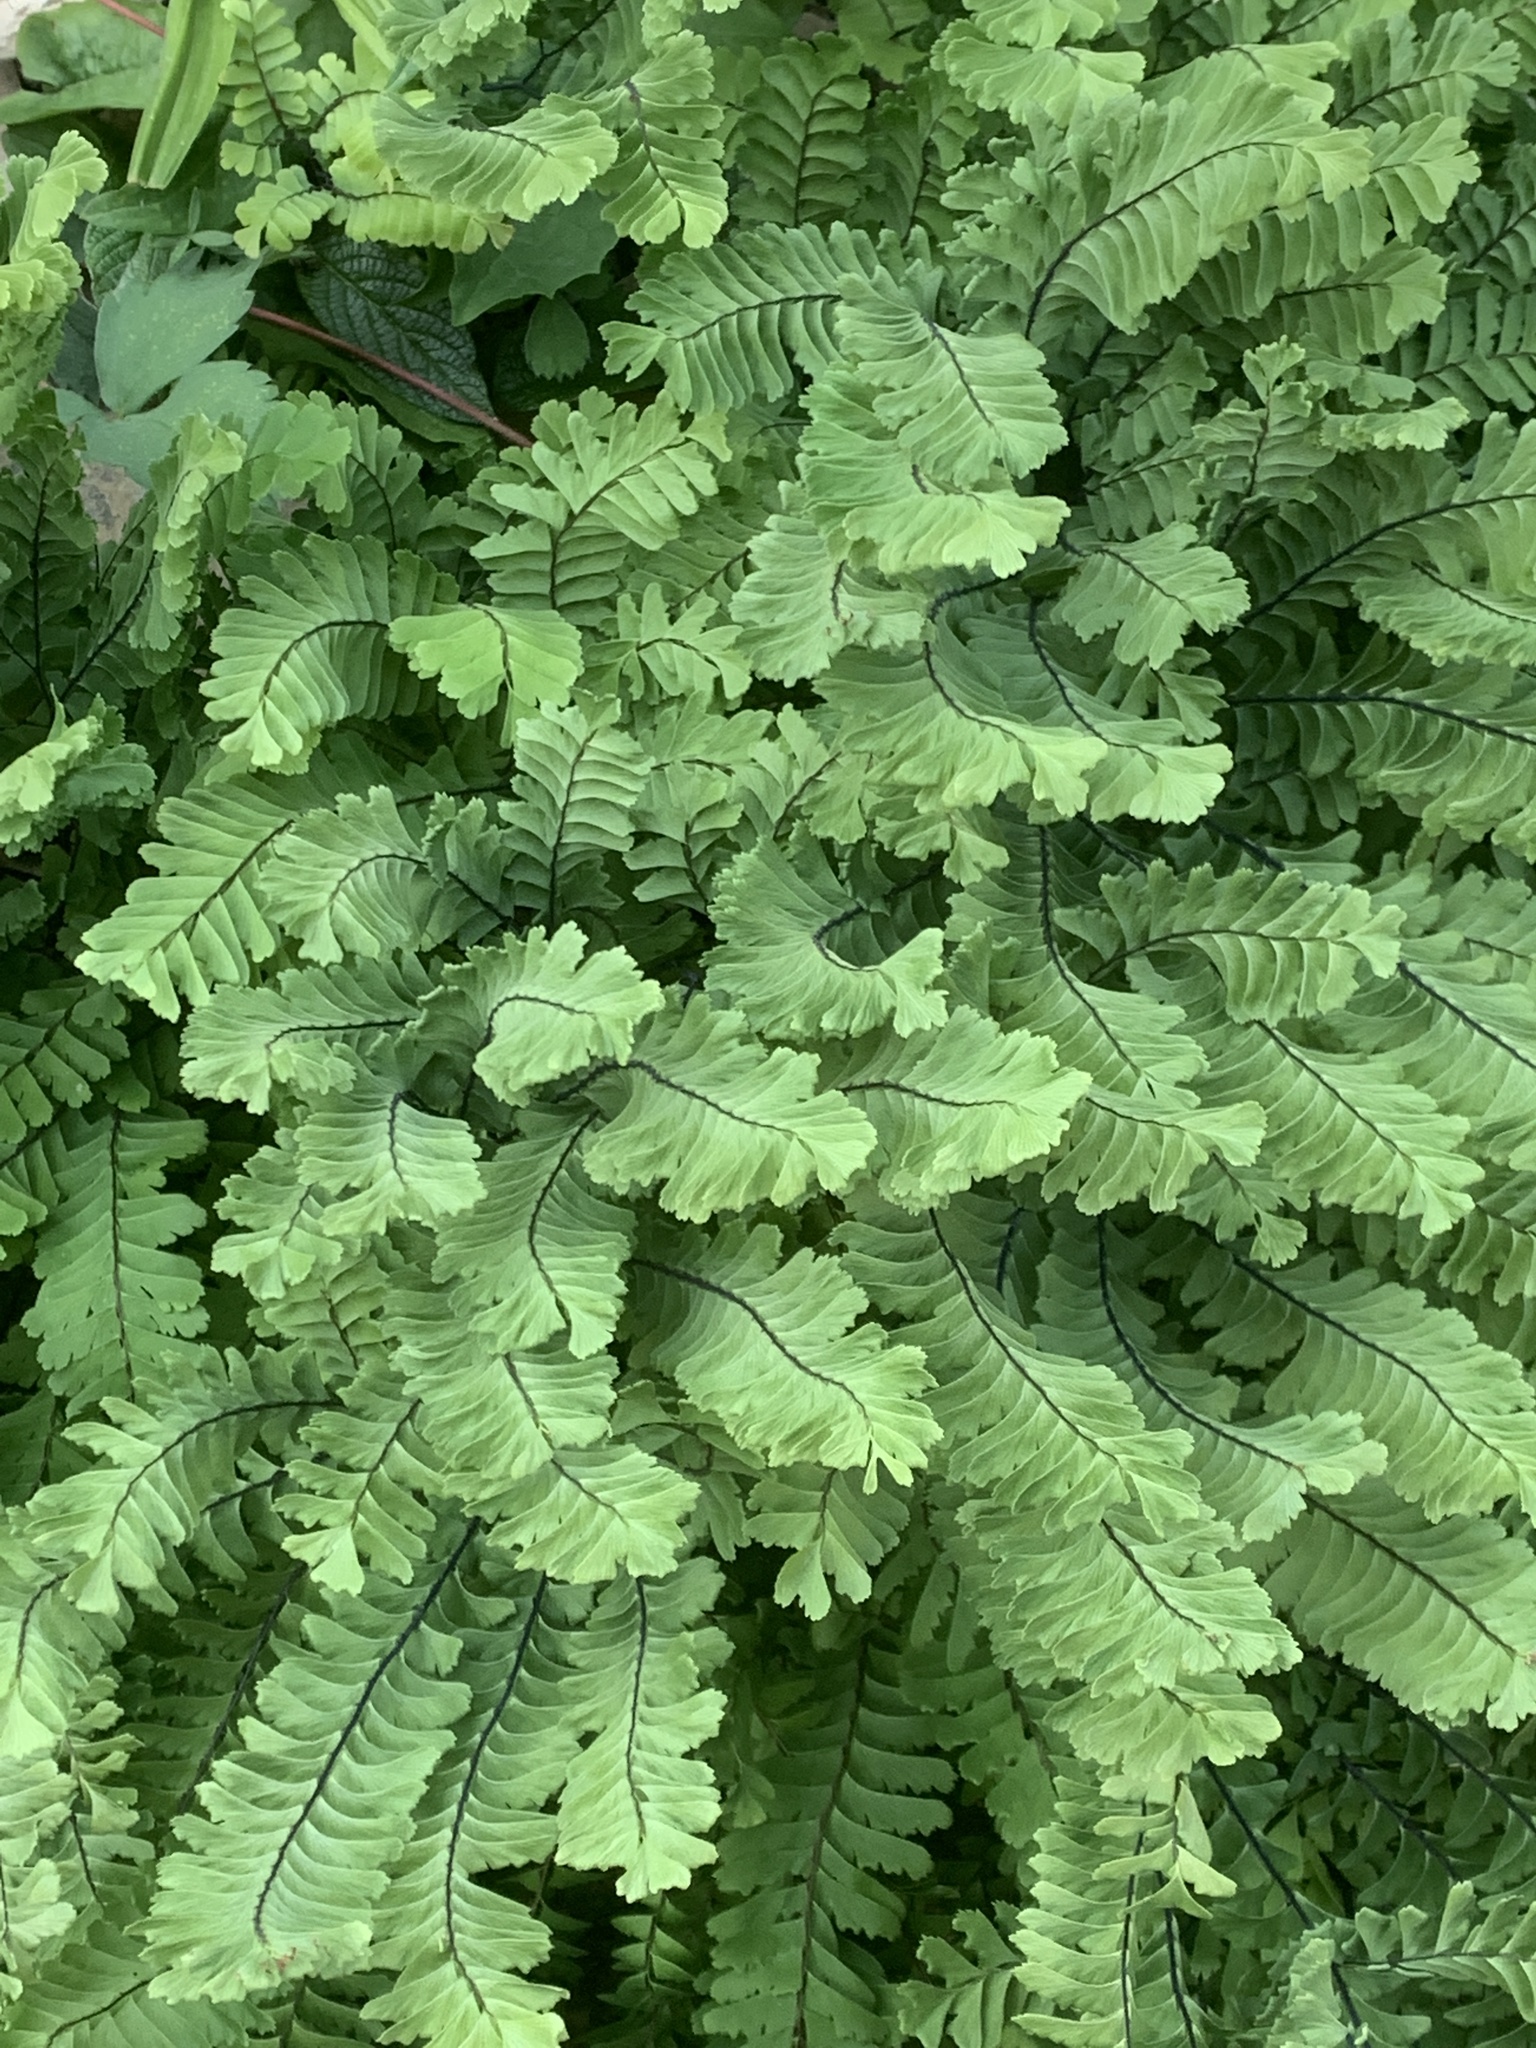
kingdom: Plantae
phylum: Tracheophyta
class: Polypodiopsida
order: Polypodiales
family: Pteridaceae
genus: Adiantum
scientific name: Adiantum aleuticum
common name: Aleutian maidenhair fern
